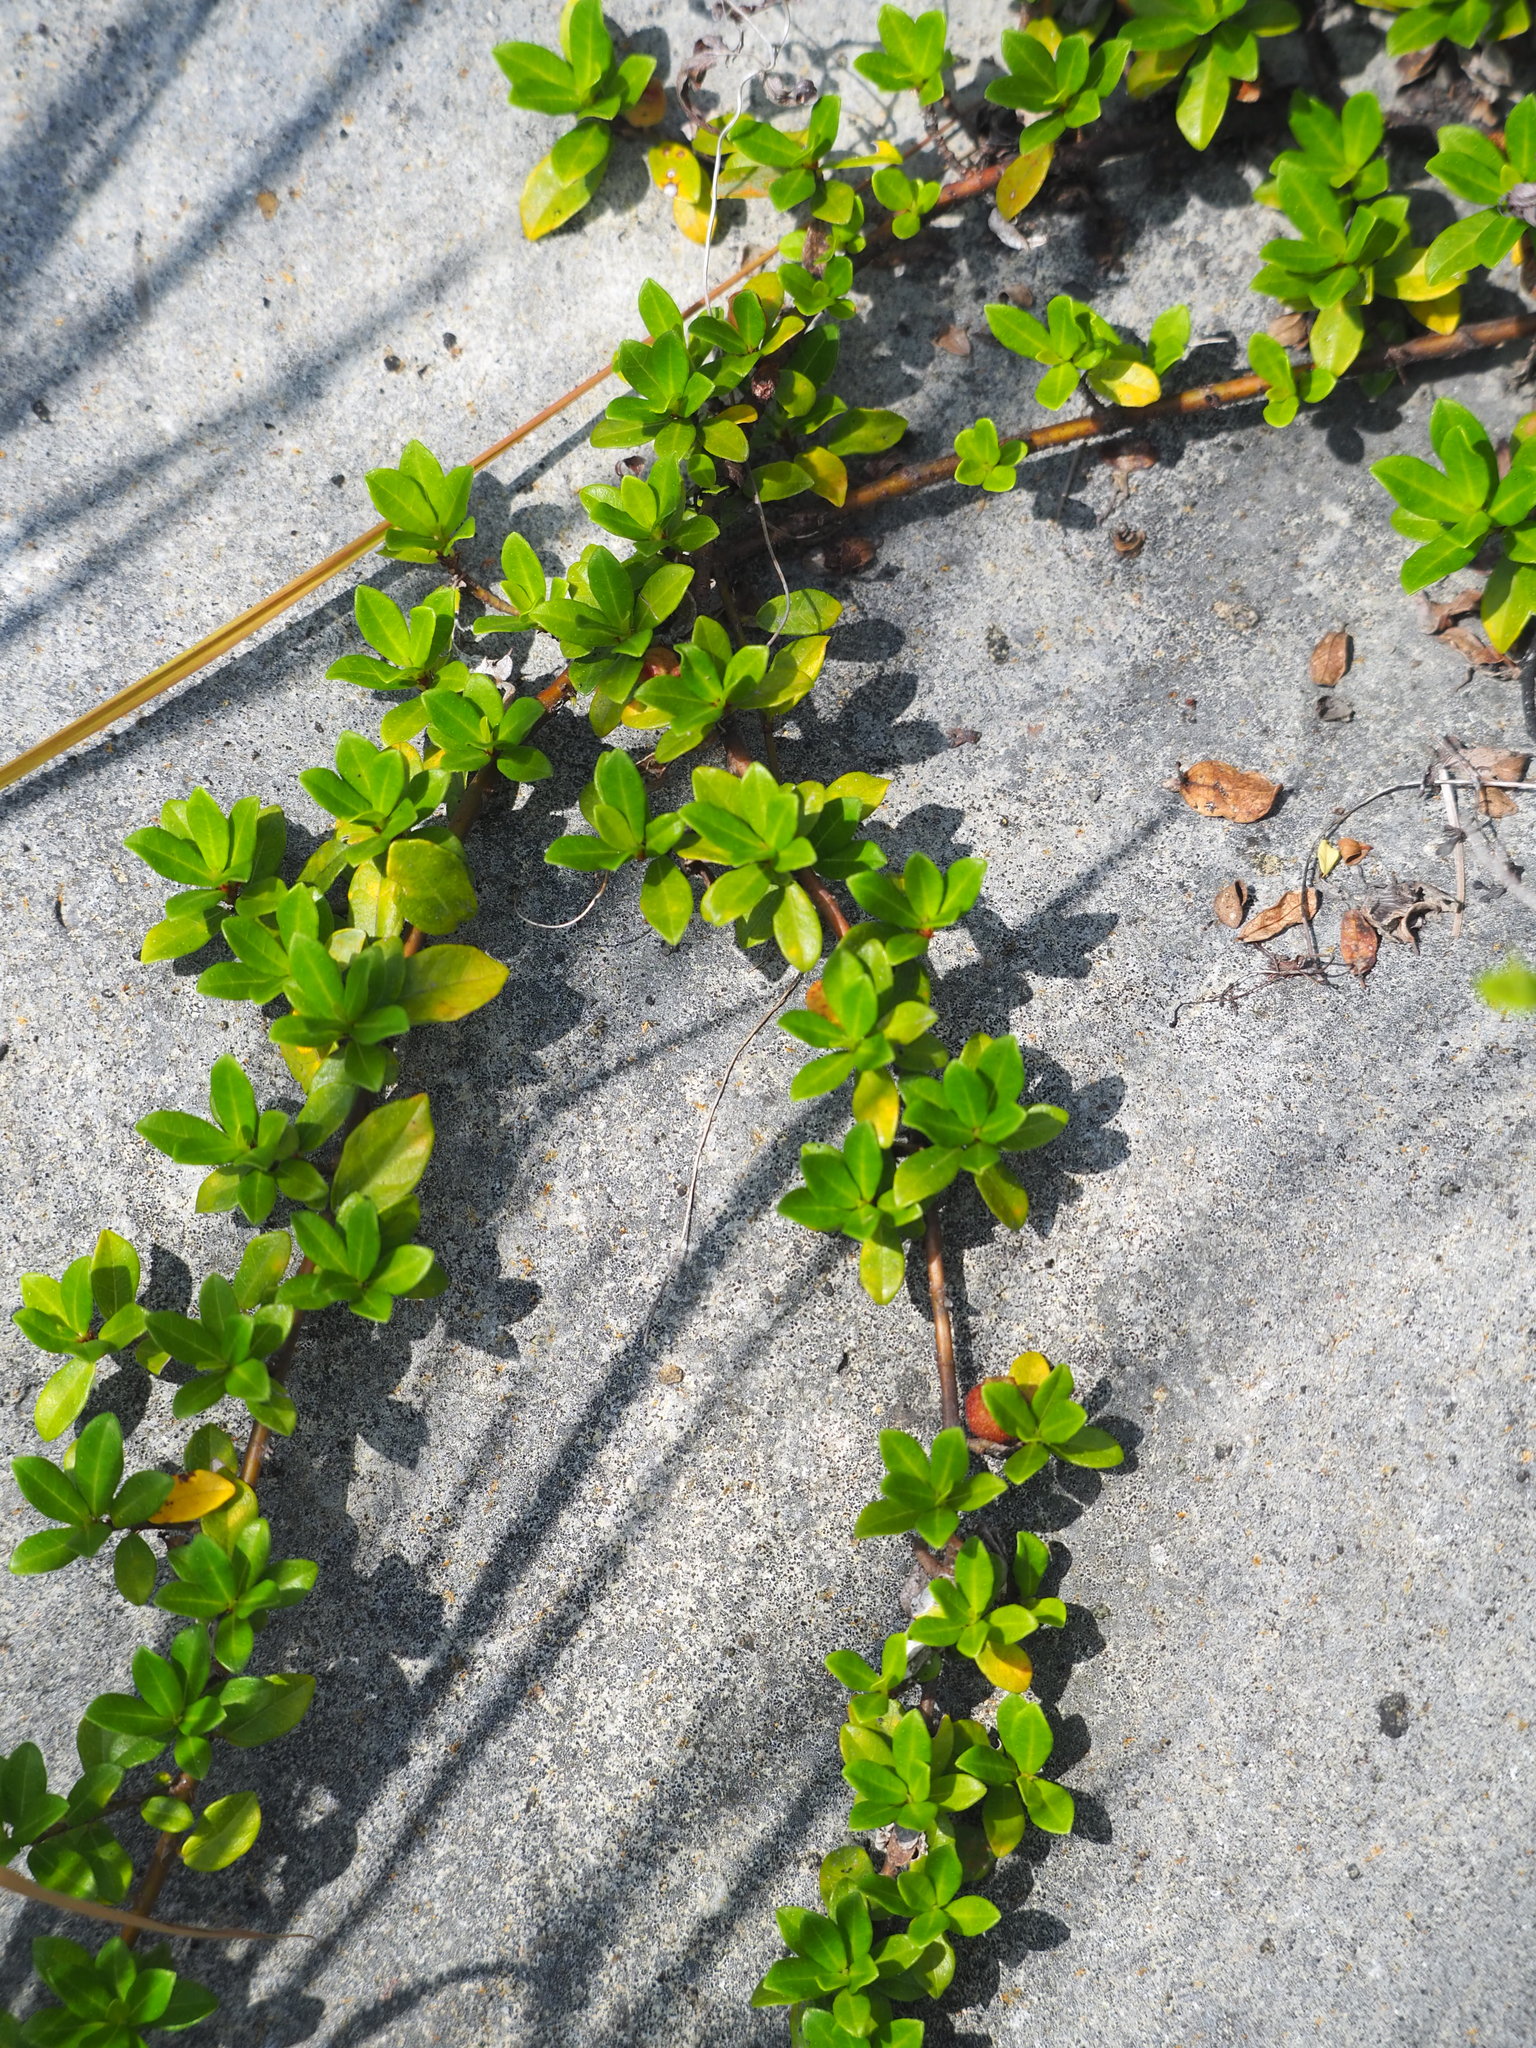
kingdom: Plantae
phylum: Tracheophyta
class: Magnoliopsida
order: Rosales
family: Moraceae
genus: Ficus
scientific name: Ficus vaccinioides
